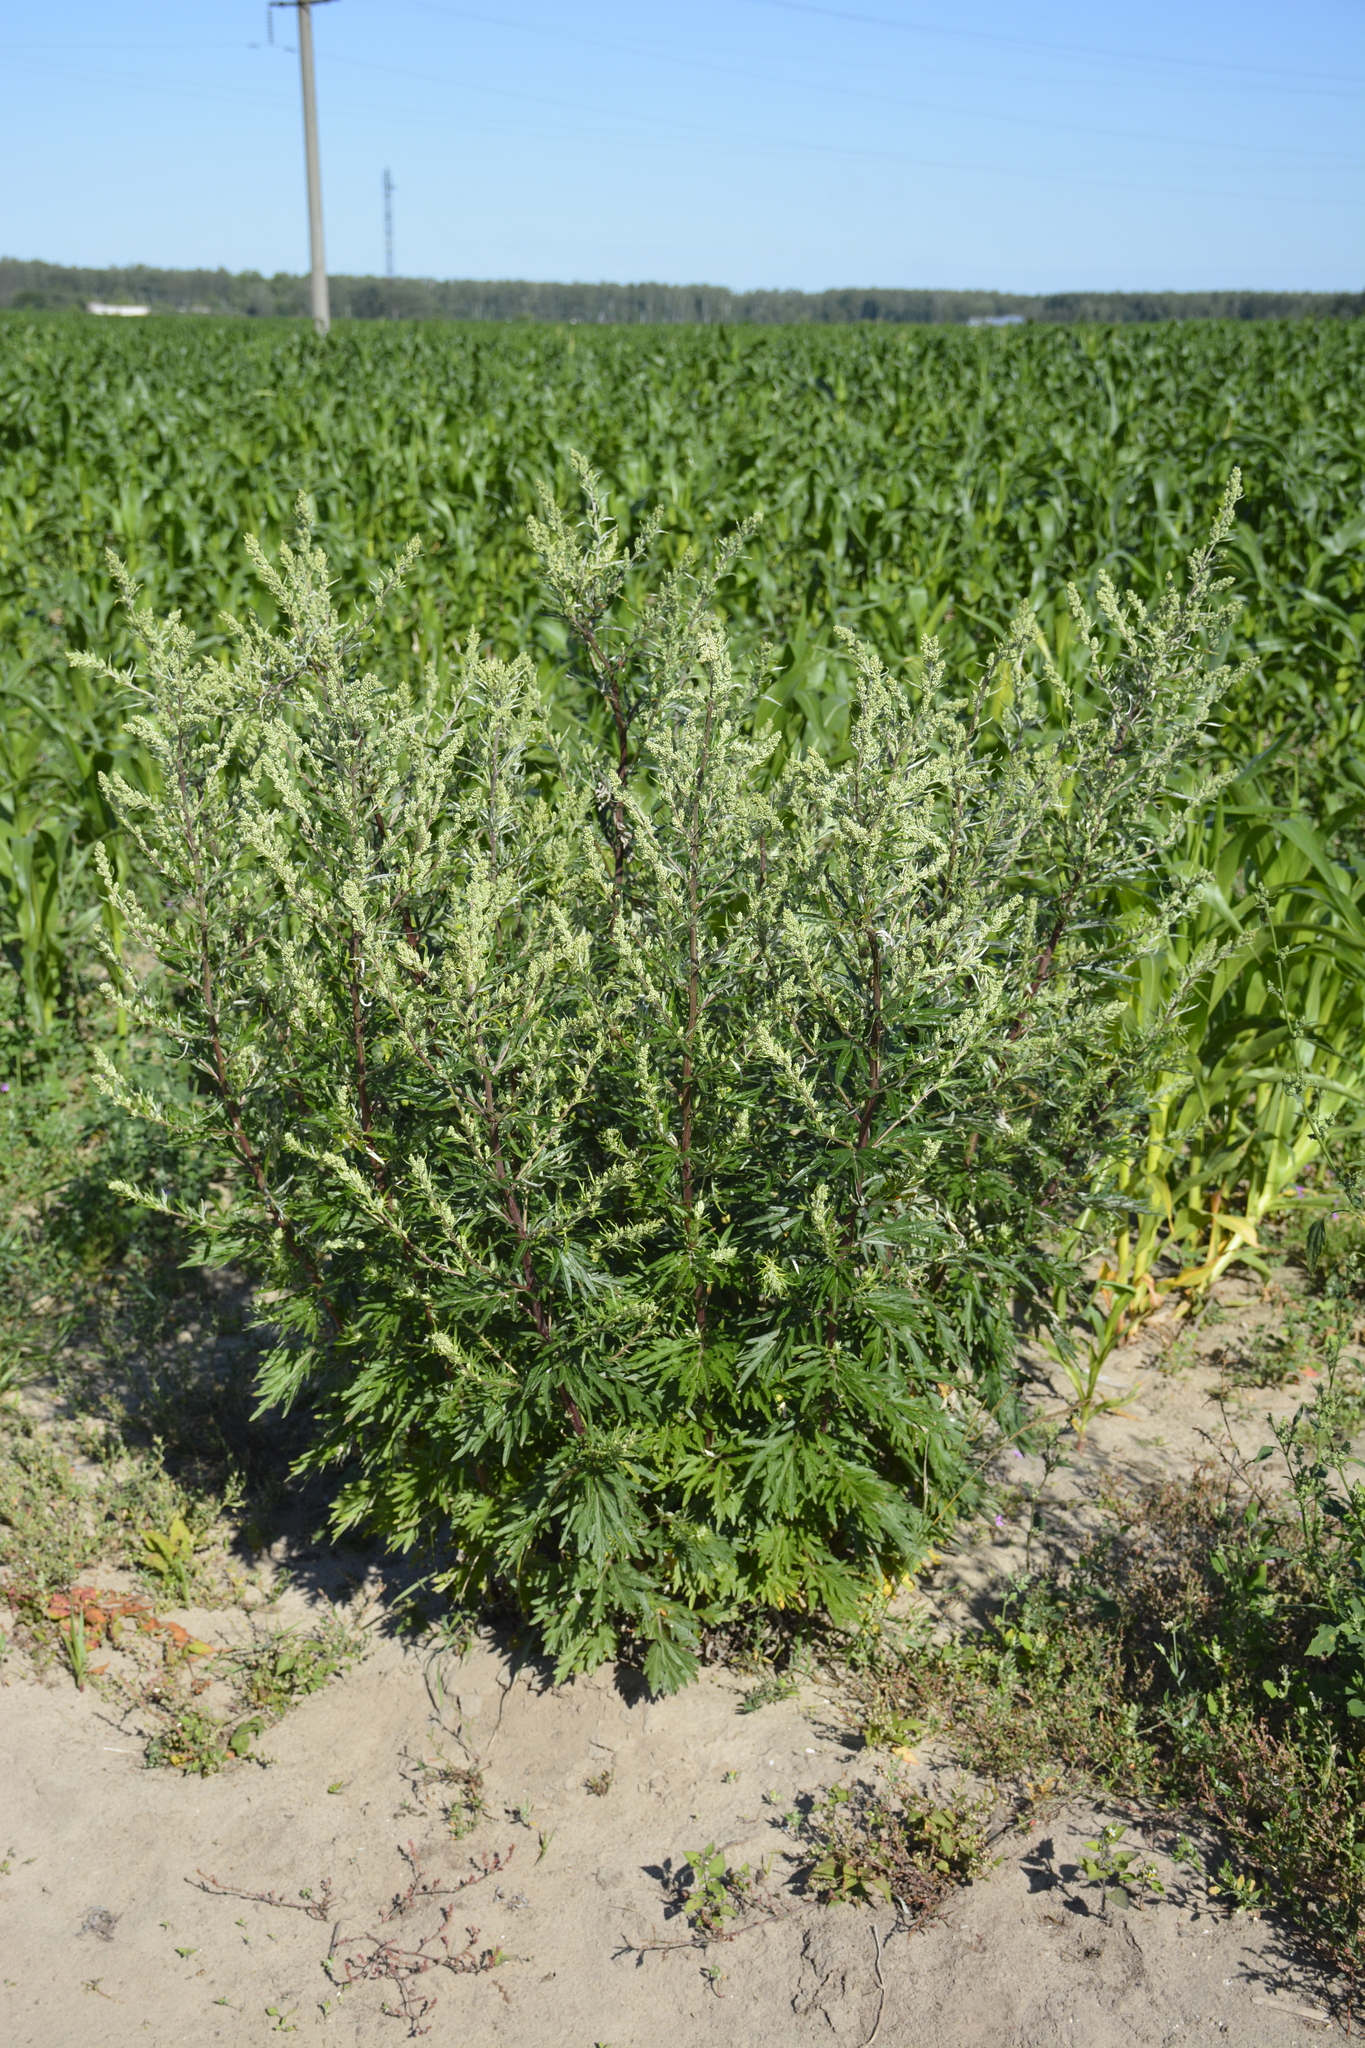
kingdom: Plantae
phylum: Tracheophyta
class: Magnoliopsida
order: Asterales
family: Asteraceae
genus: Artemisia
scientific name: Artemisia vulgaris
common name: Mugwort
